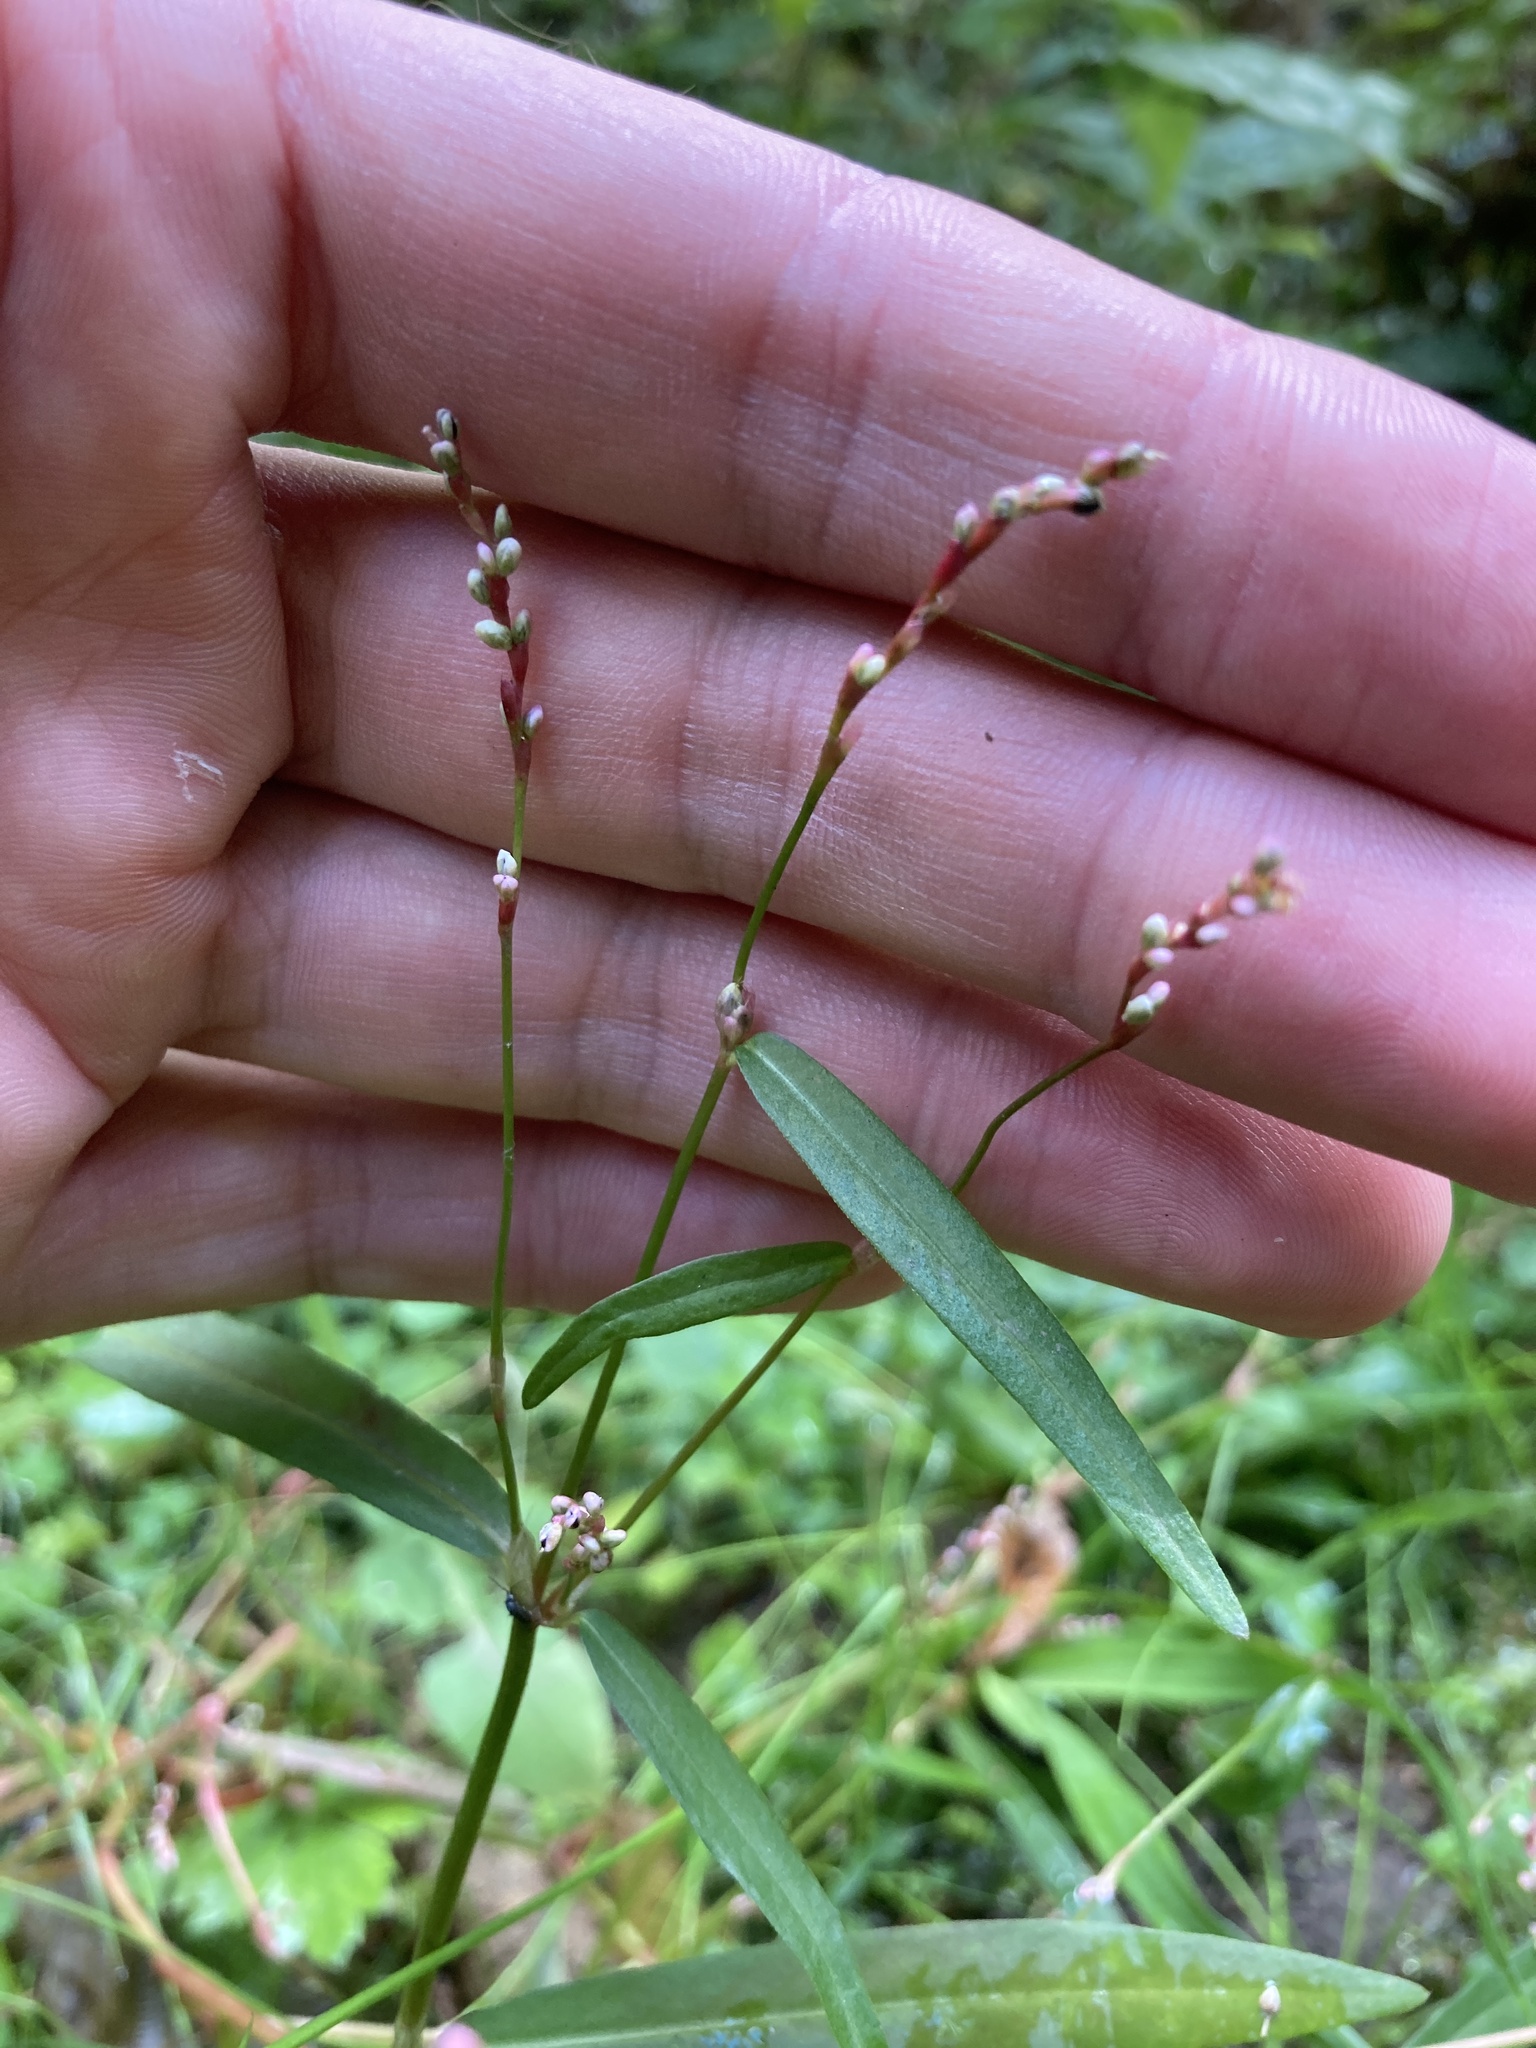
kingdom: Plantae
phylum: Tracheophyta
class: Magnoliopsida
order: Caryophyllales
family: Polygonaceae
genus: Persicaria
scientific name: Persicaria minor
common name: Small water-pepper
